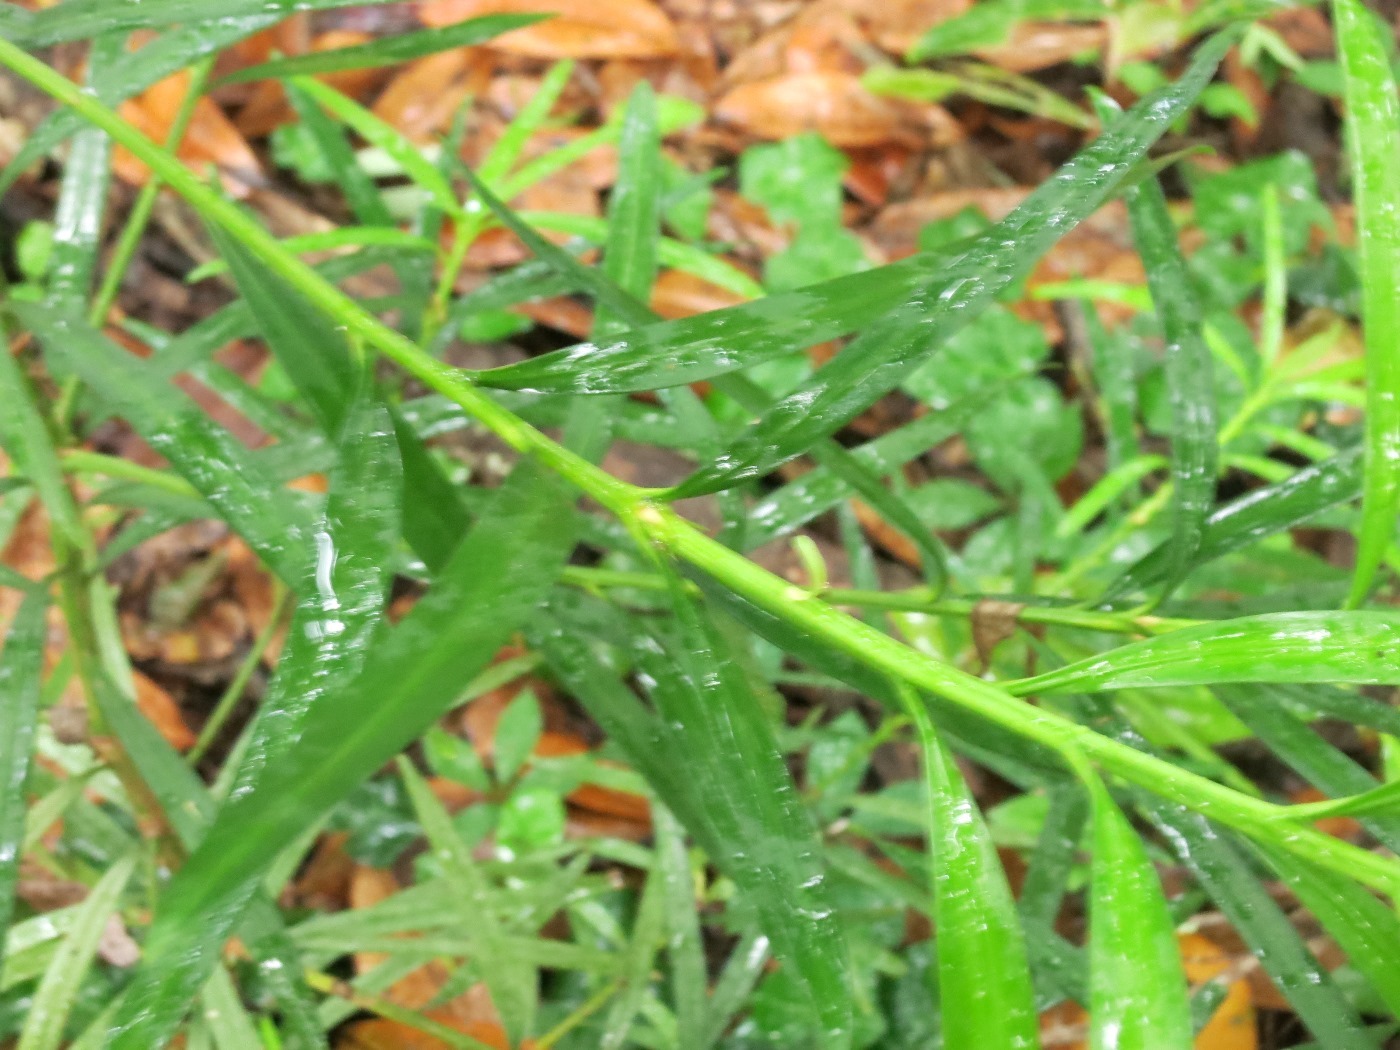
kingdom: Plantae
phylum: Tracheophyta
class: Pinopsida
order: Pinales
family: Podocarpaceae
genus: Podocarpus
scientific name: Podocarpus macrophyllus
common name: Japanese yew
